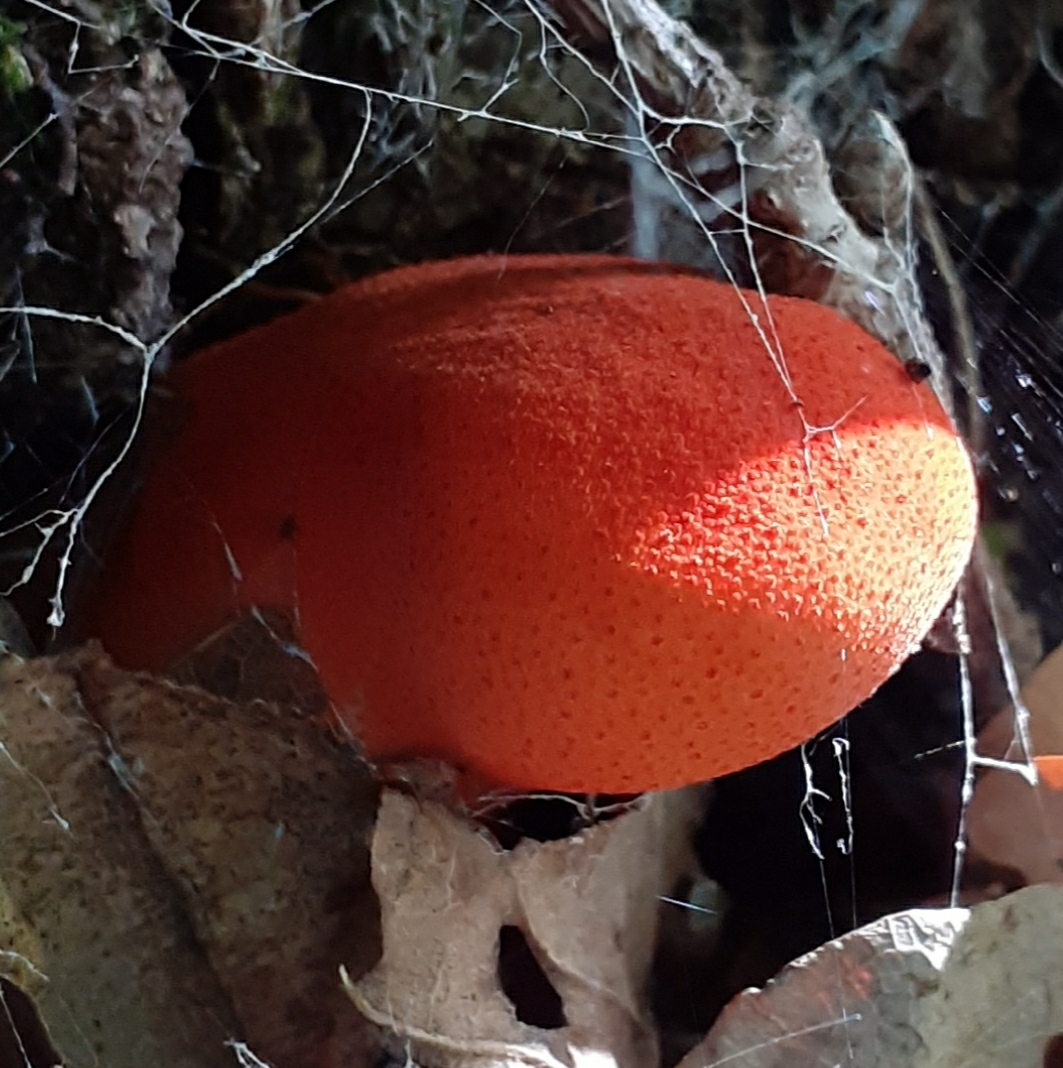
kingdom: Fungi
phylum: Basidiomycota
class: Agaricomycetes
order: Agaricales
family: Fistulinaceae
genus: Fistulina
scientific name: Fistulina hepatica
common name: Beef-steak fungus
